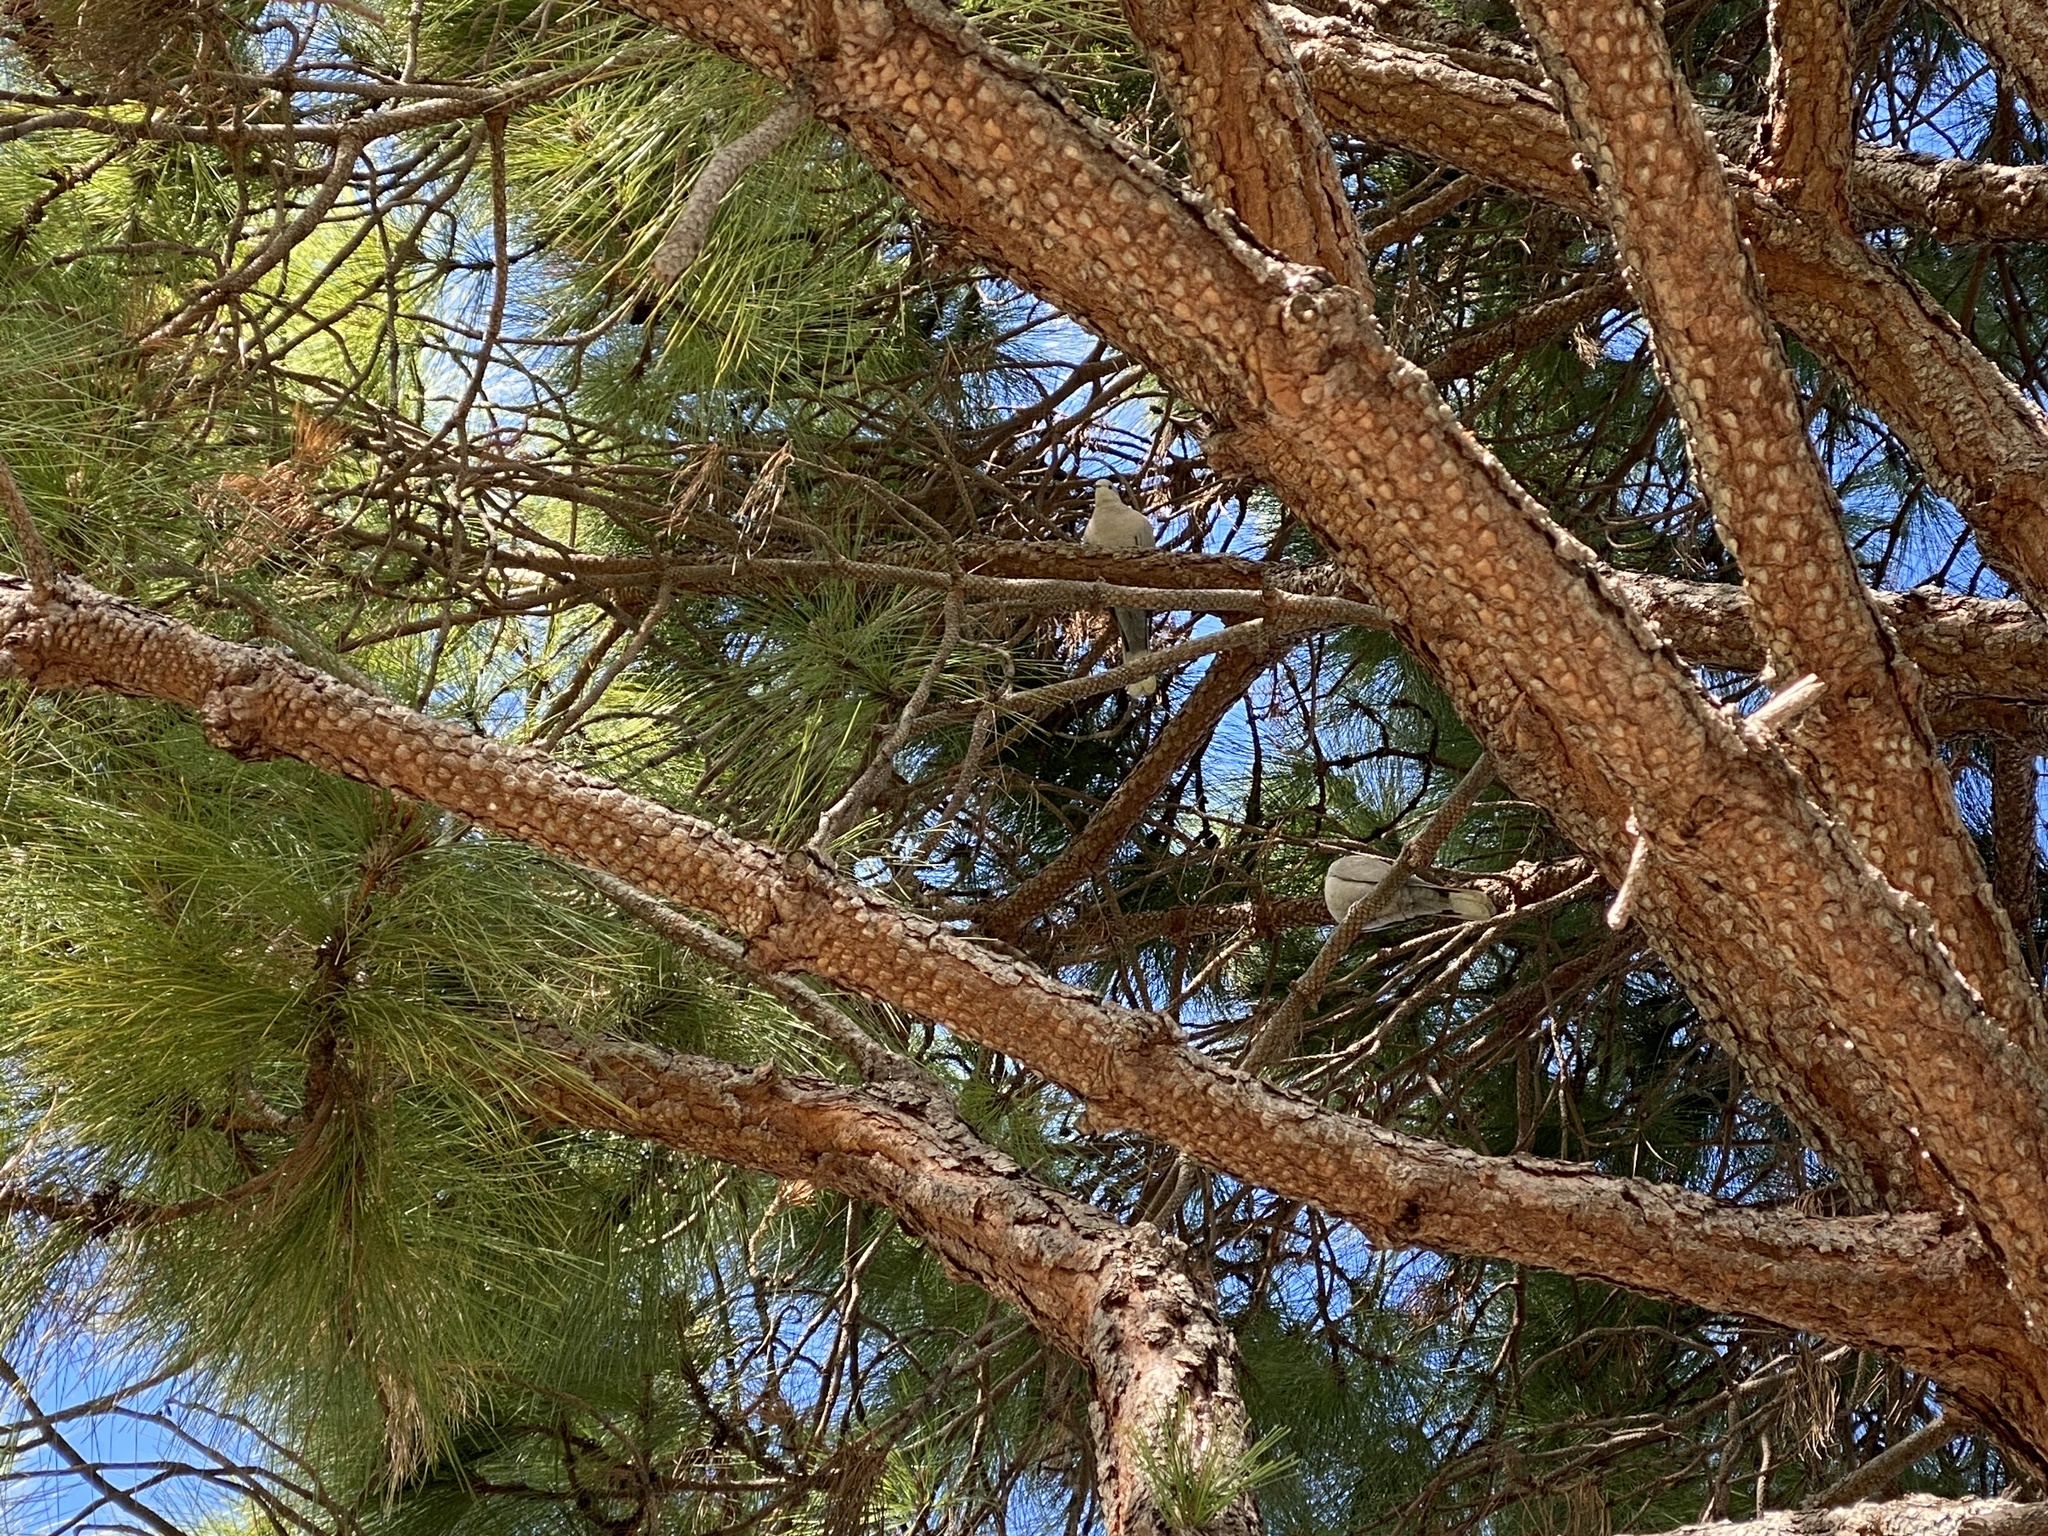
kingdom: Animalia
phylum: Chordata
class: Aves
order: Columbiformes
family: Columbidae
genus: Zenaida
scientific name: Zenaida macroura
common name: Mourning dove
